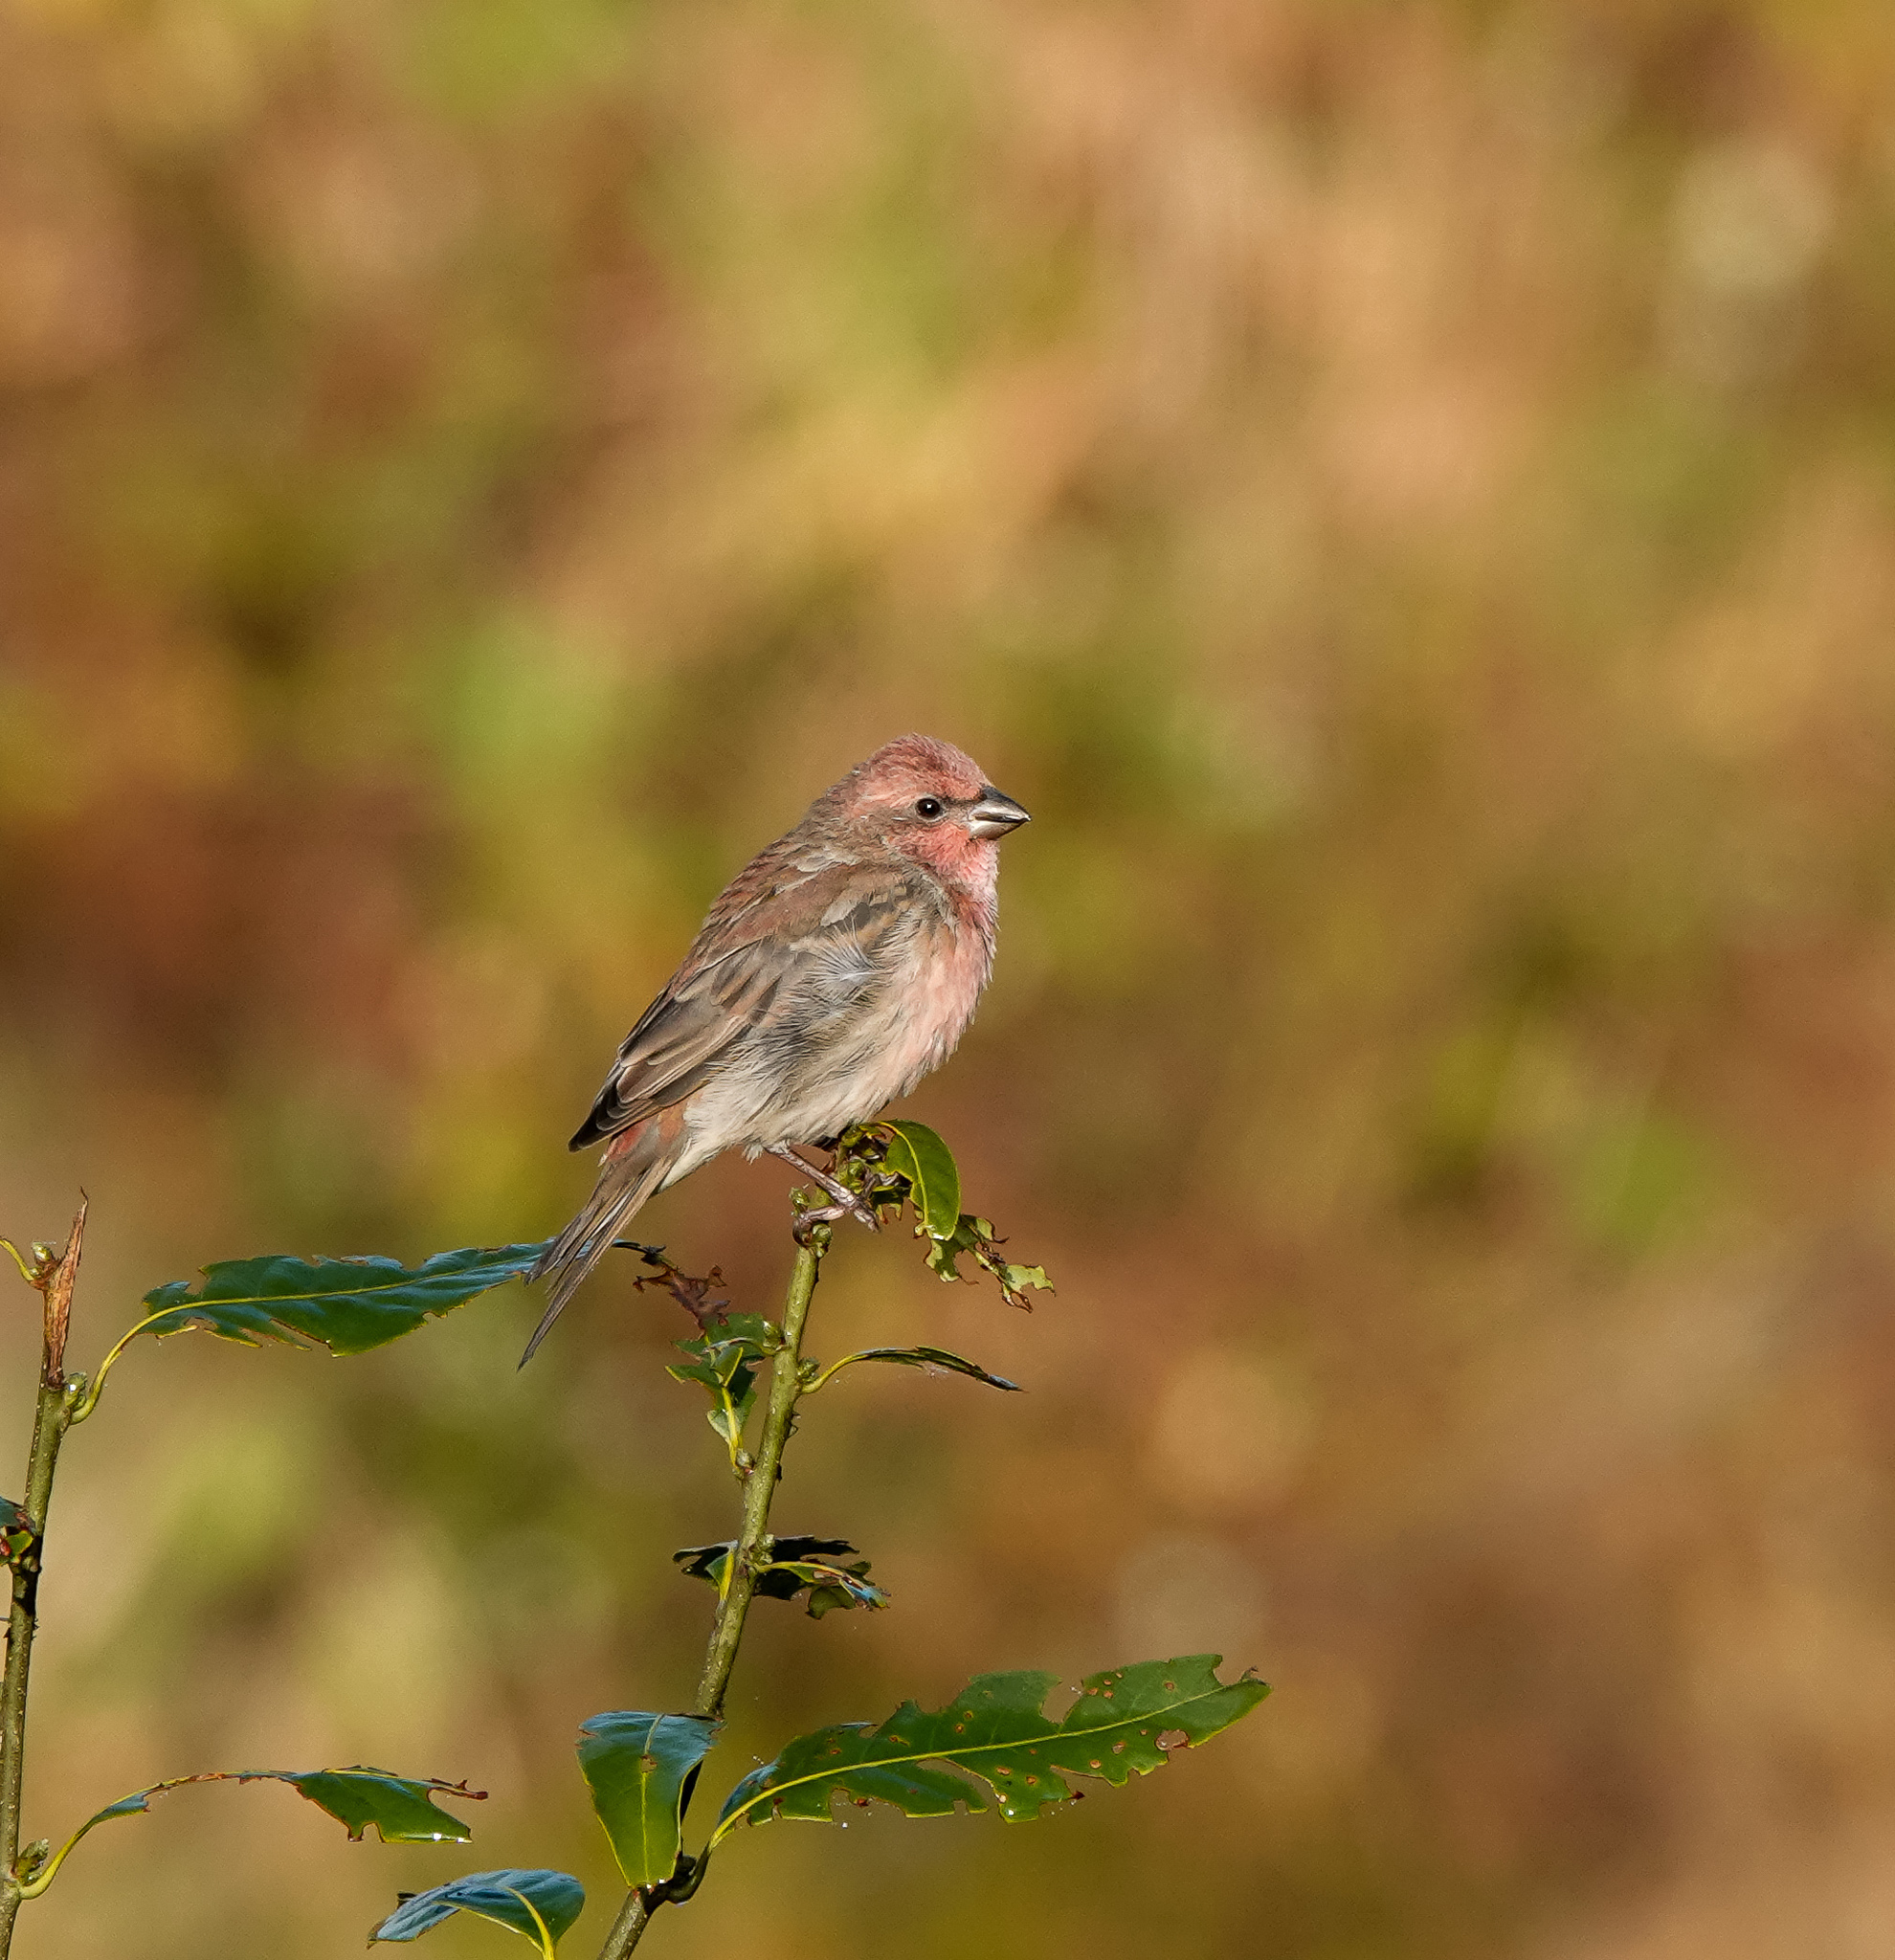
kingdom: Animalia
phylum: Chordata
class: Aves
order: Passeriformes
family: Fringillidae
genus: Carpodacus
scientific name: Carpodacus erythrinus
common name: Common rosefinch
